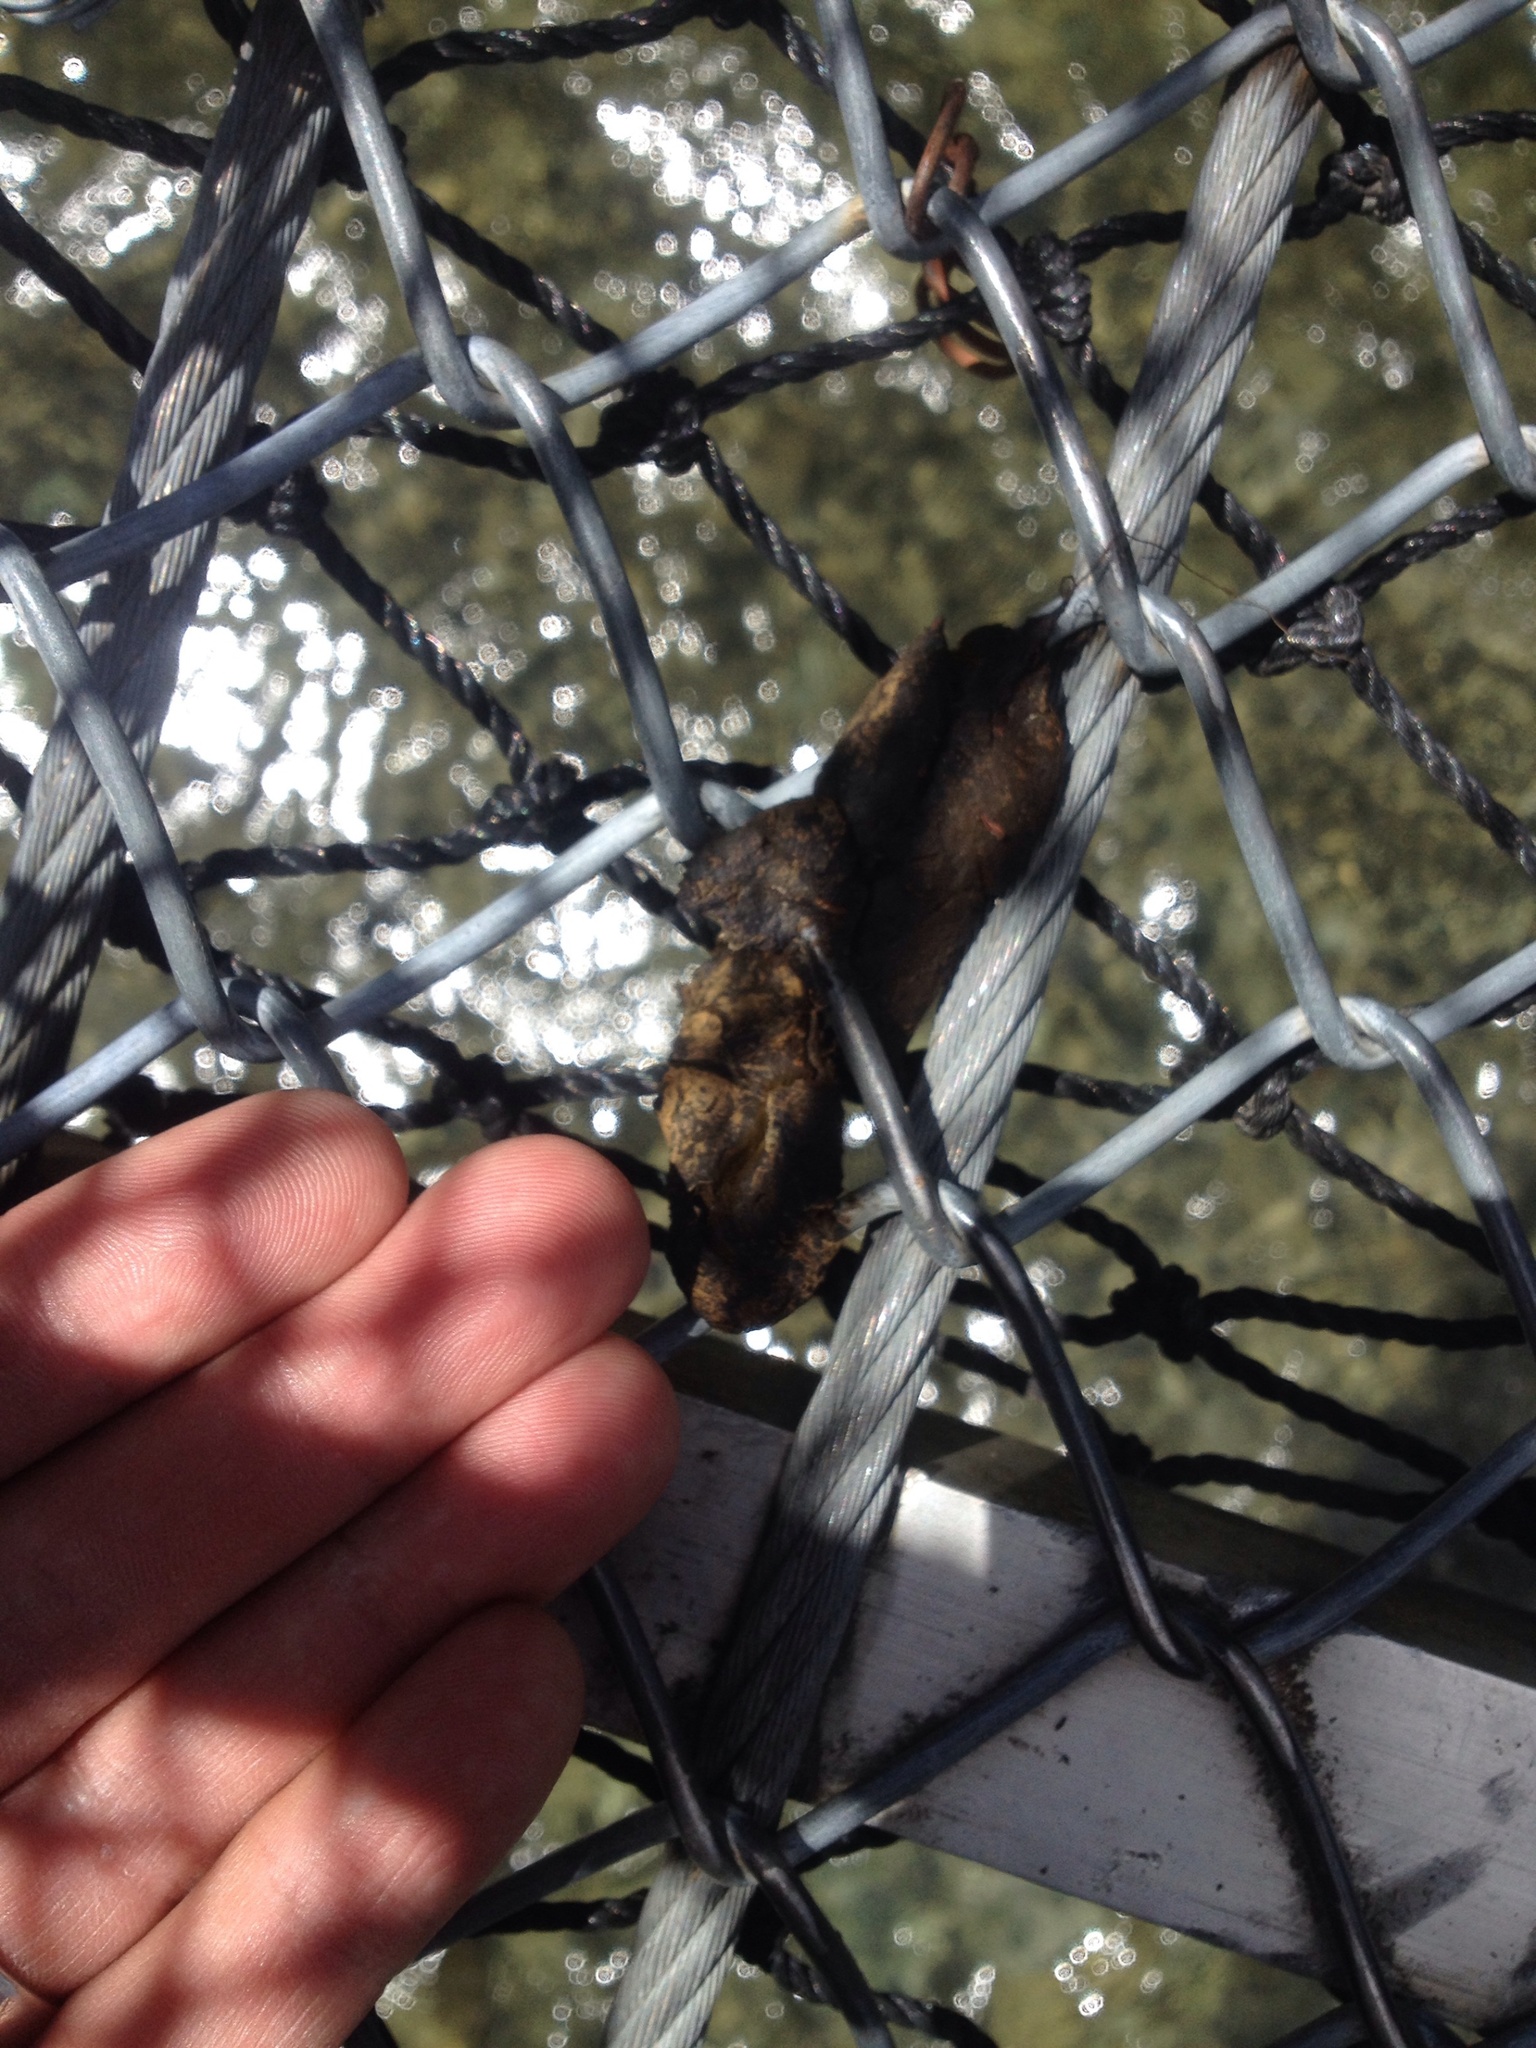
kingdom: Animalia
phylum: Chordata
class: Mammalia
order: Diprotodontia
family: Phalangeridae
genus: Trichosurus
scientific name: Trichosurus vulpecula
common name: Common brushtail
